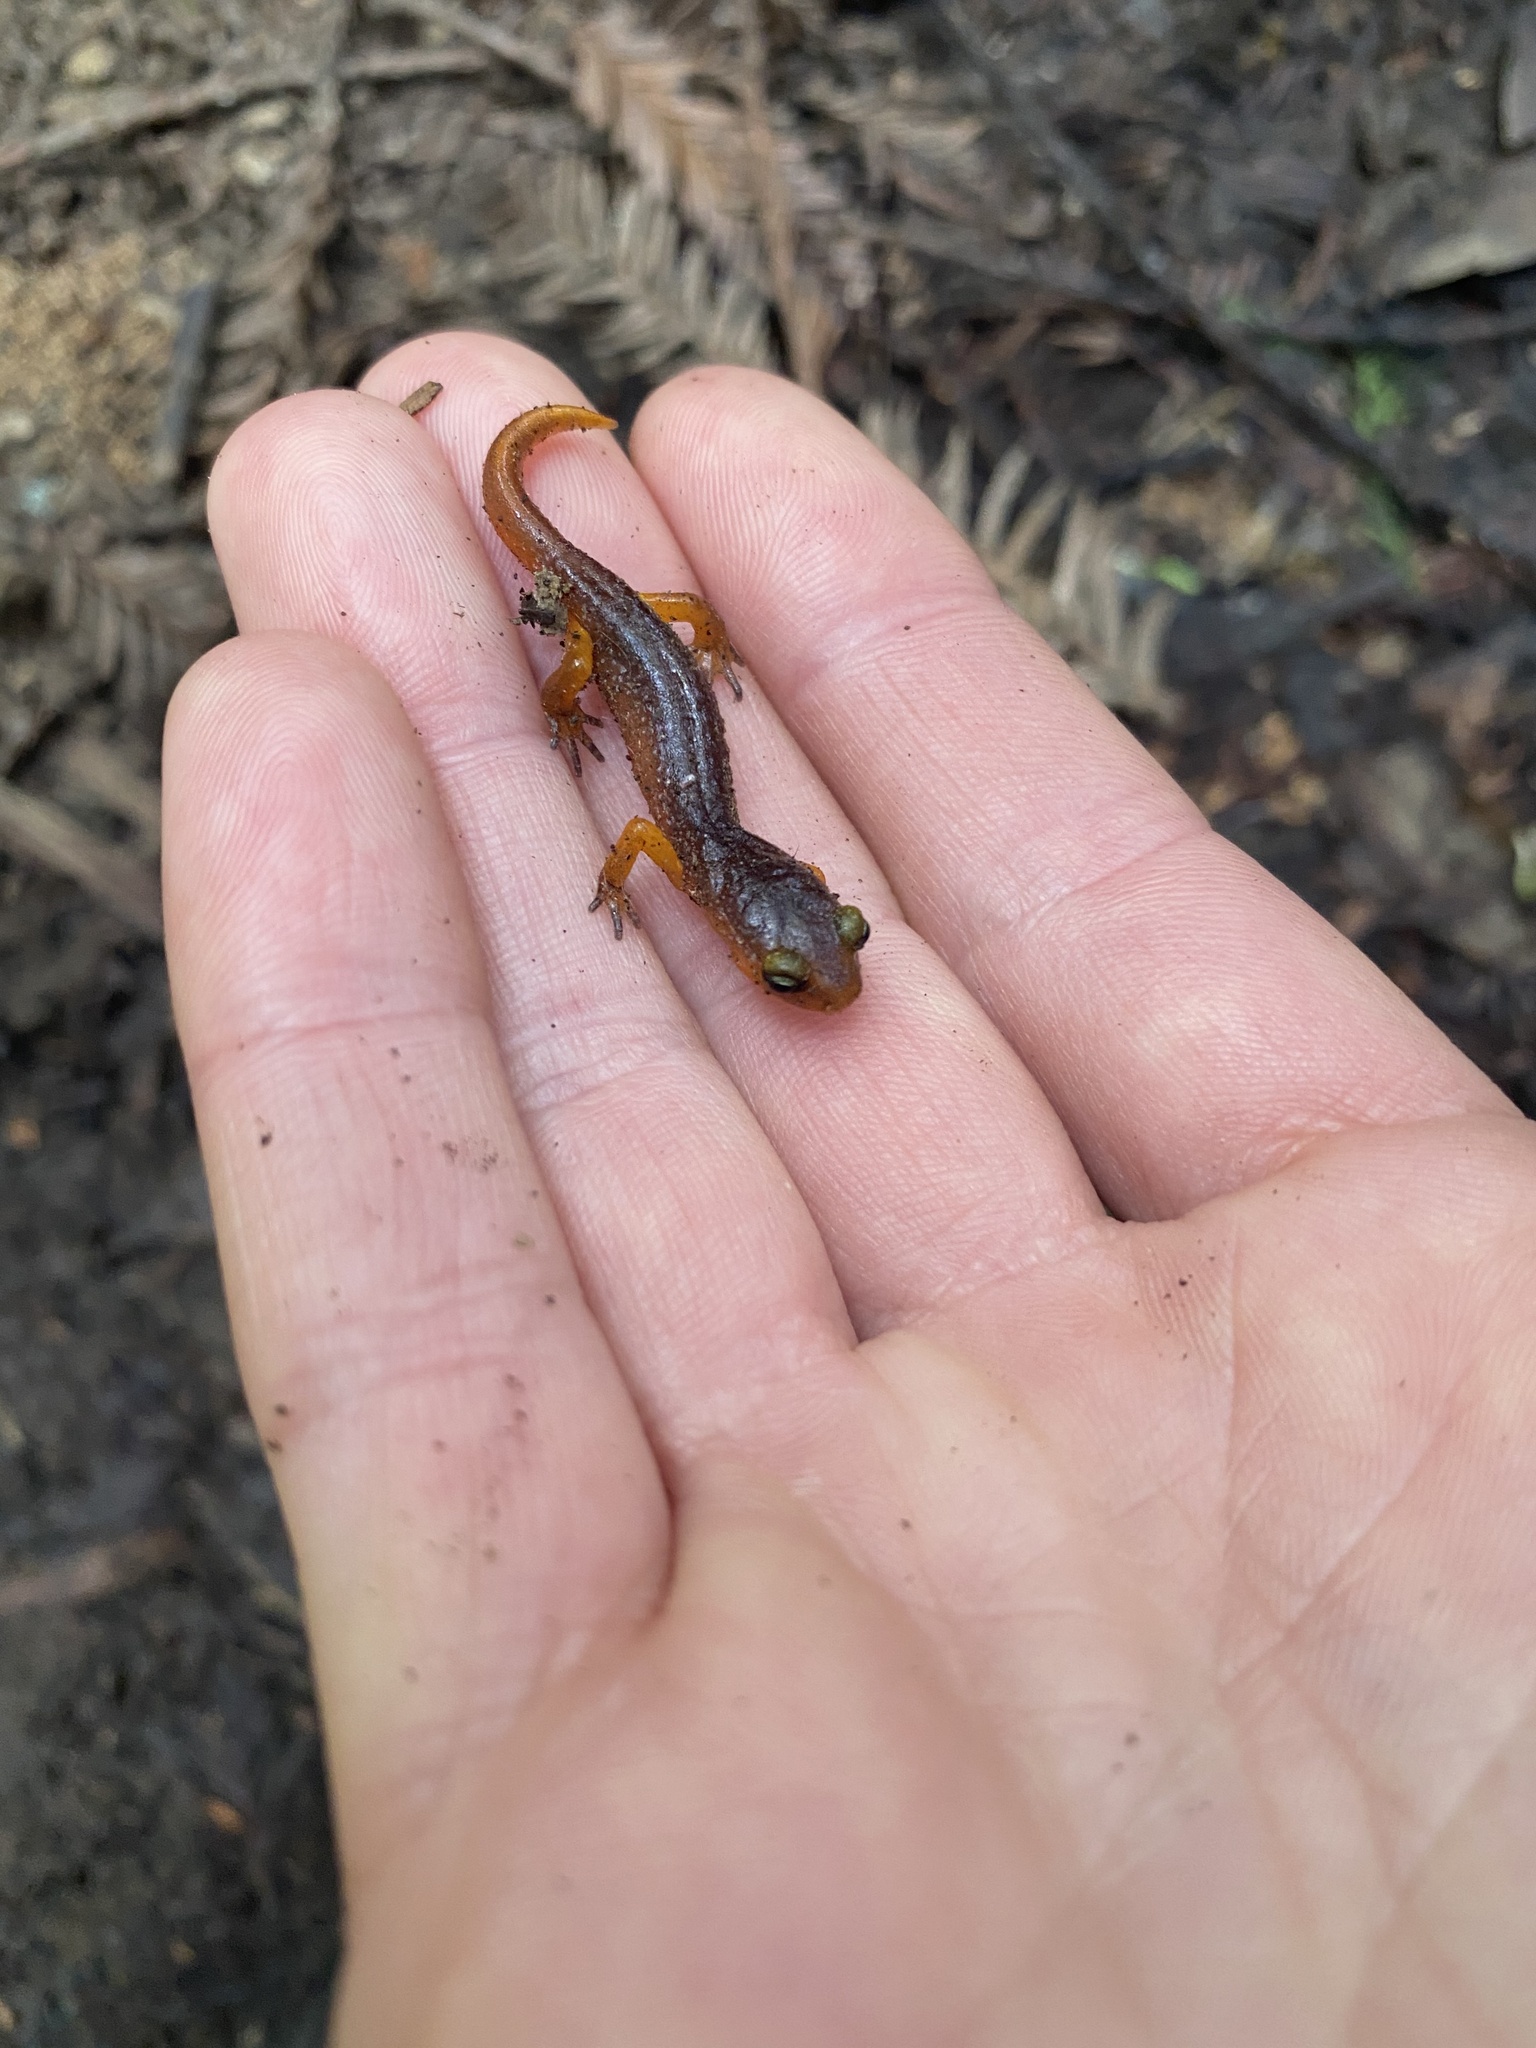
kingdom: Animalia
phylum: Chordata
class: Amphibia
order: Caudata
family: Plethodontidae
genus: Ensatina
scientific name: Ensatina eschscholtzii
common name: Ensatina
